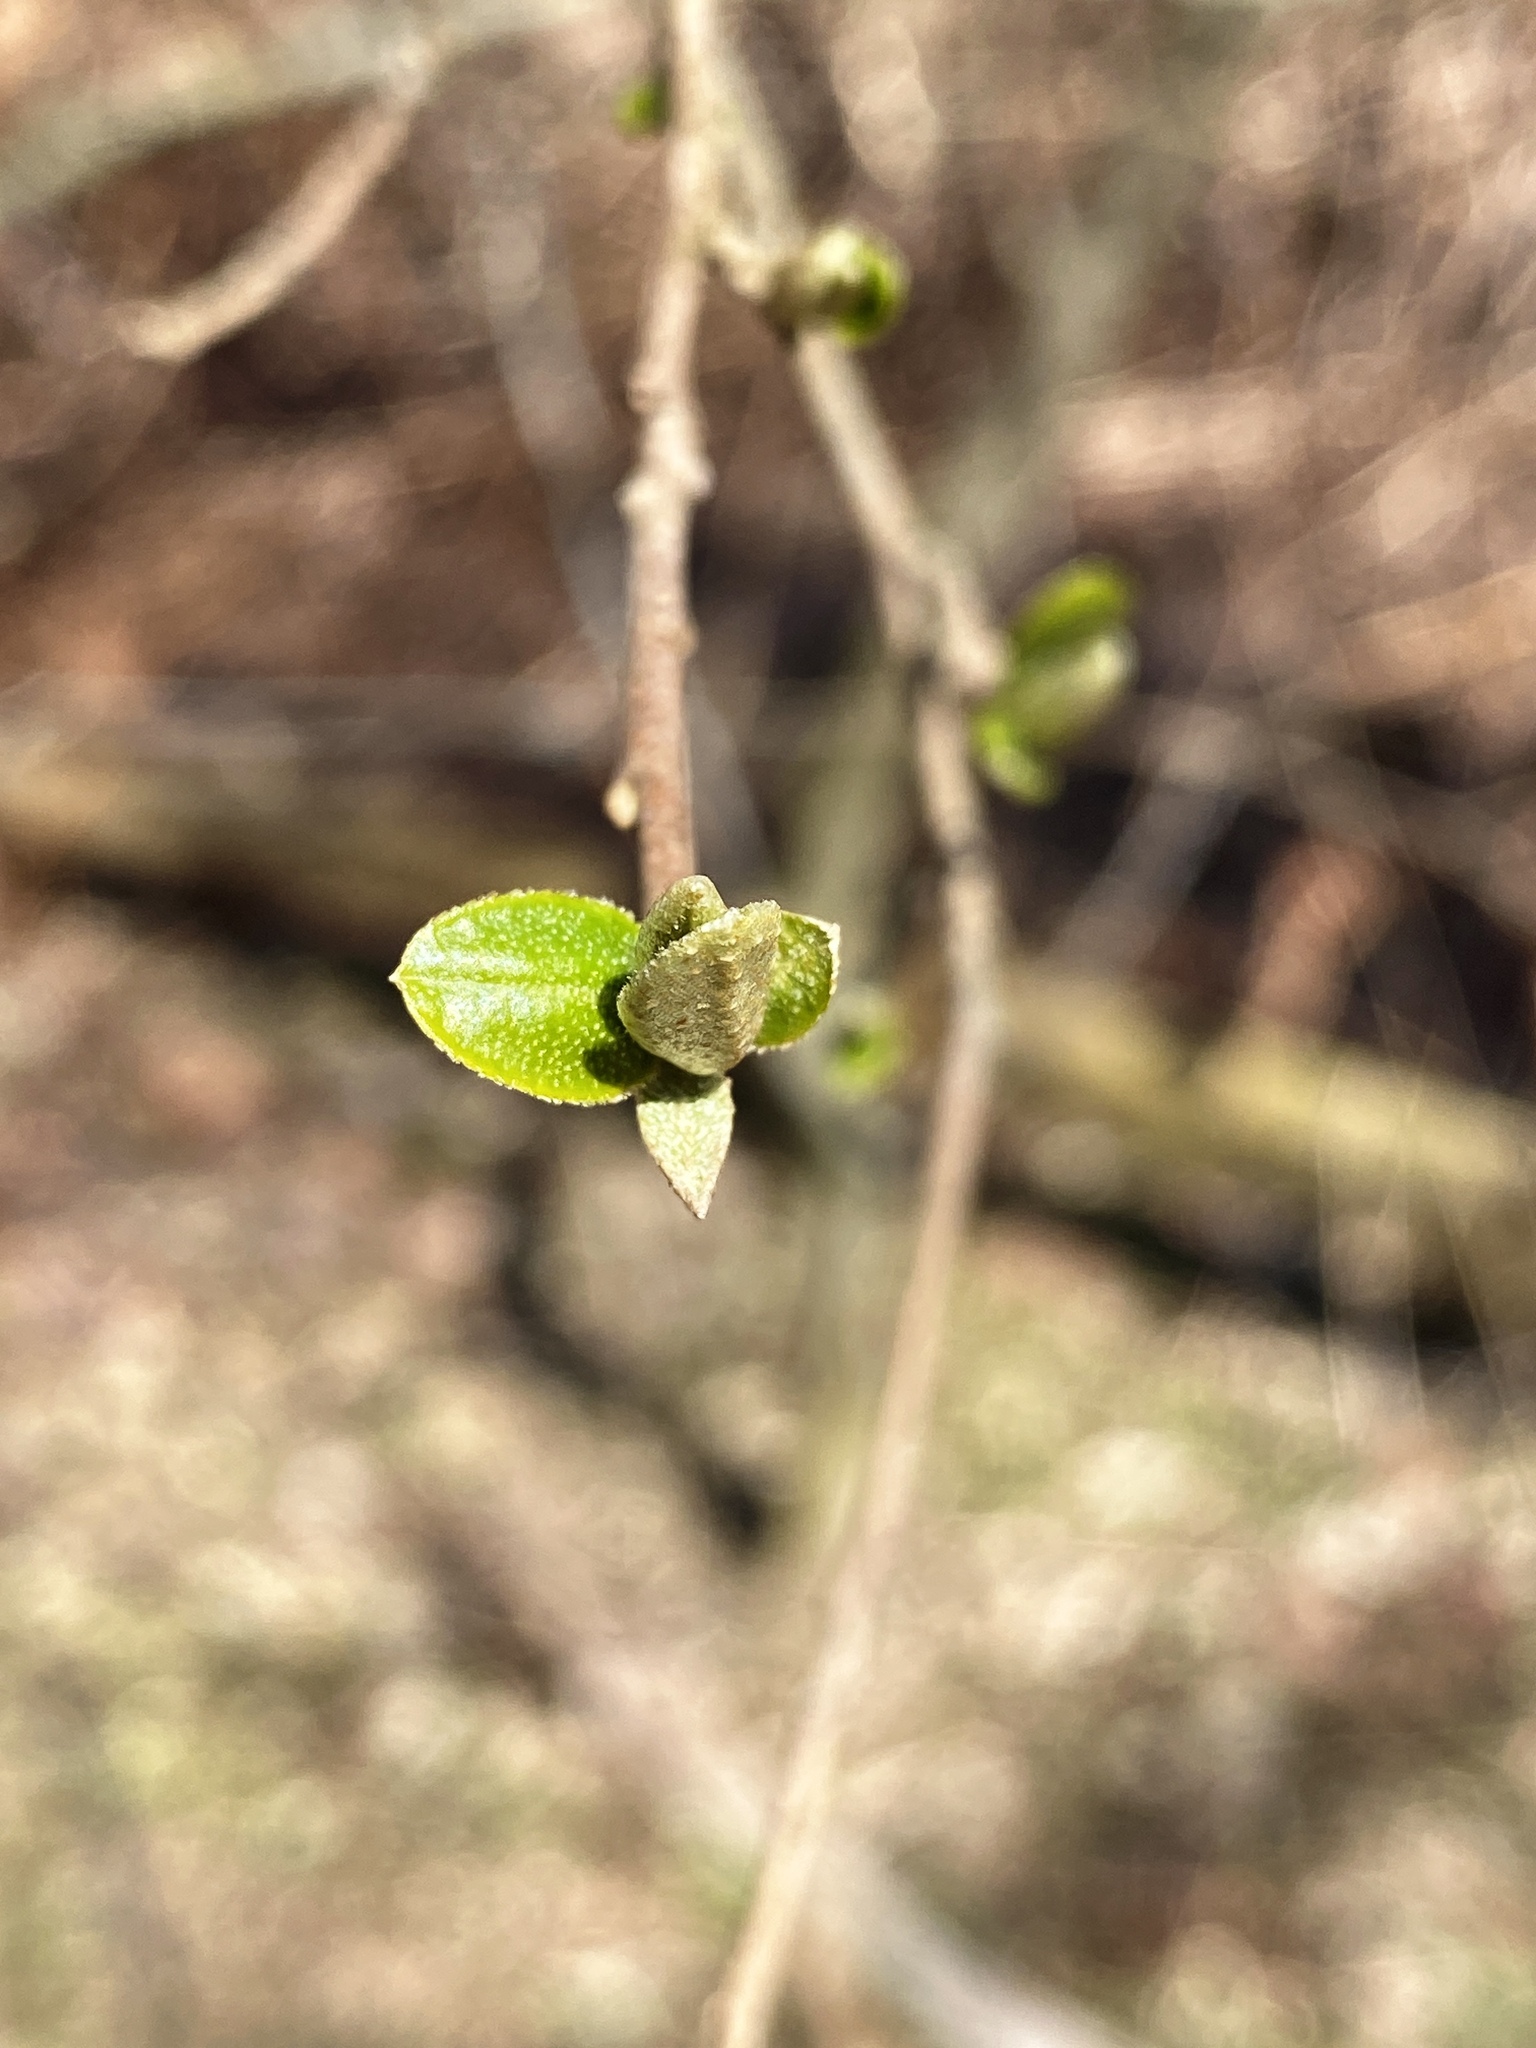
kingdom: Plantae
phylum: Tracheophyta
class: Magnoliopsida
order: Rosales
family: Elaeagnaceae
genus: Elaeagnus
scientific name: Elaeagnus umbellata
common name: Autumn olive
